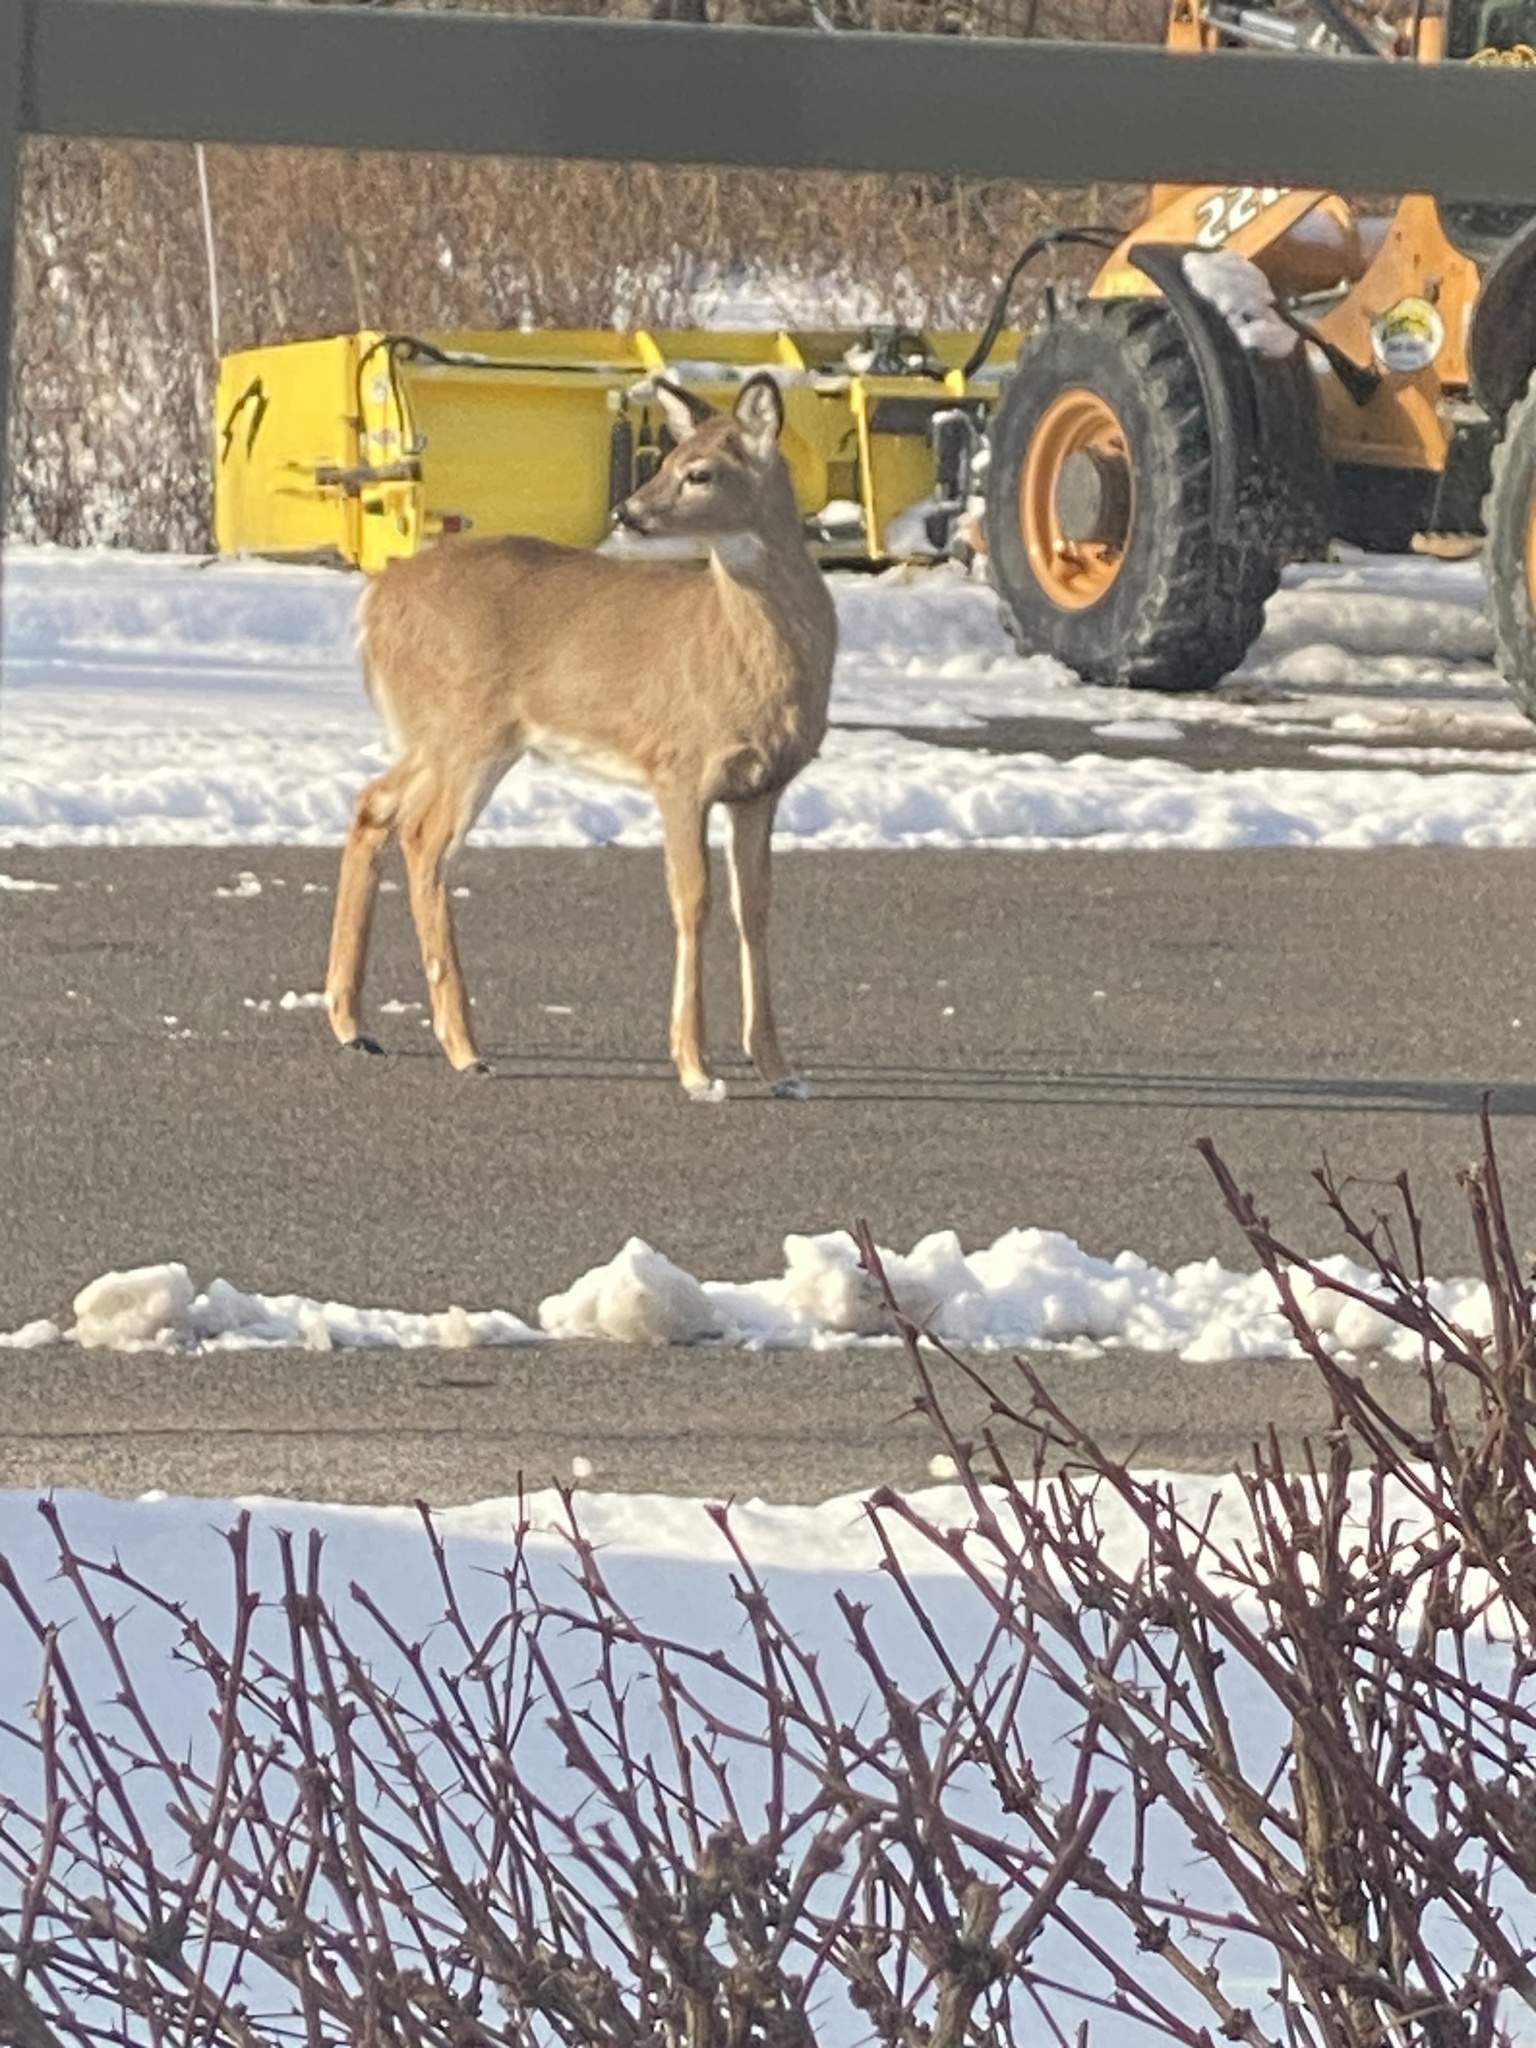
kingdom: Animalia
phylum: Chordata
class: Mammalia
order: Artiodactyla
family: Cervidae
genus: Odocoileus
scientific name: Odocoileus virginianus
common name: White-tailed deer
